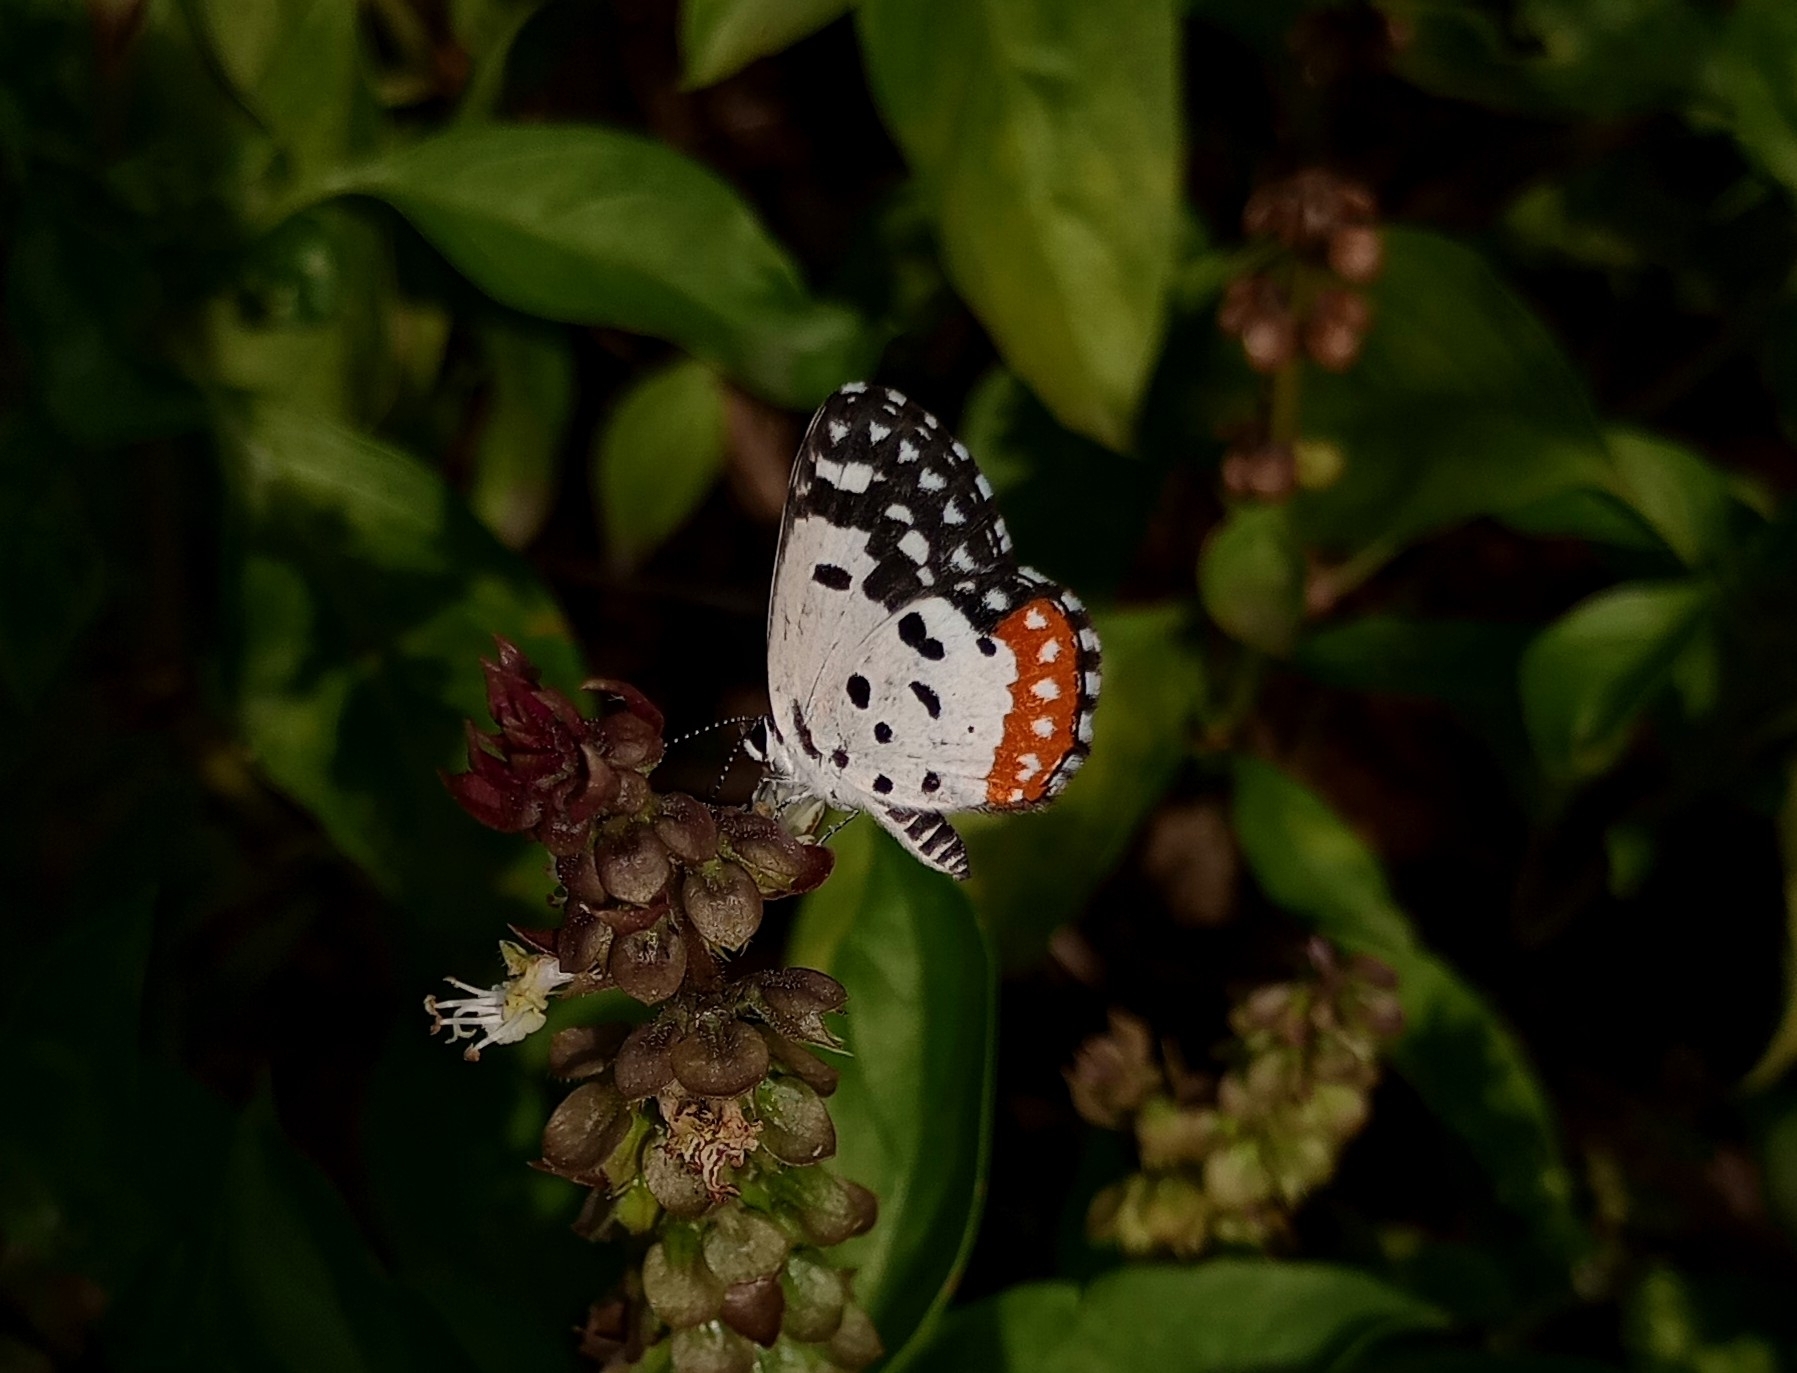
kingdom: Animalia
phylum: Arthropoda
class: Insecta
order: Lepidoptera
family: Lycaenidae
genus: Talicada
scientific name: Talicada nyseus
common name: Red pierrot
